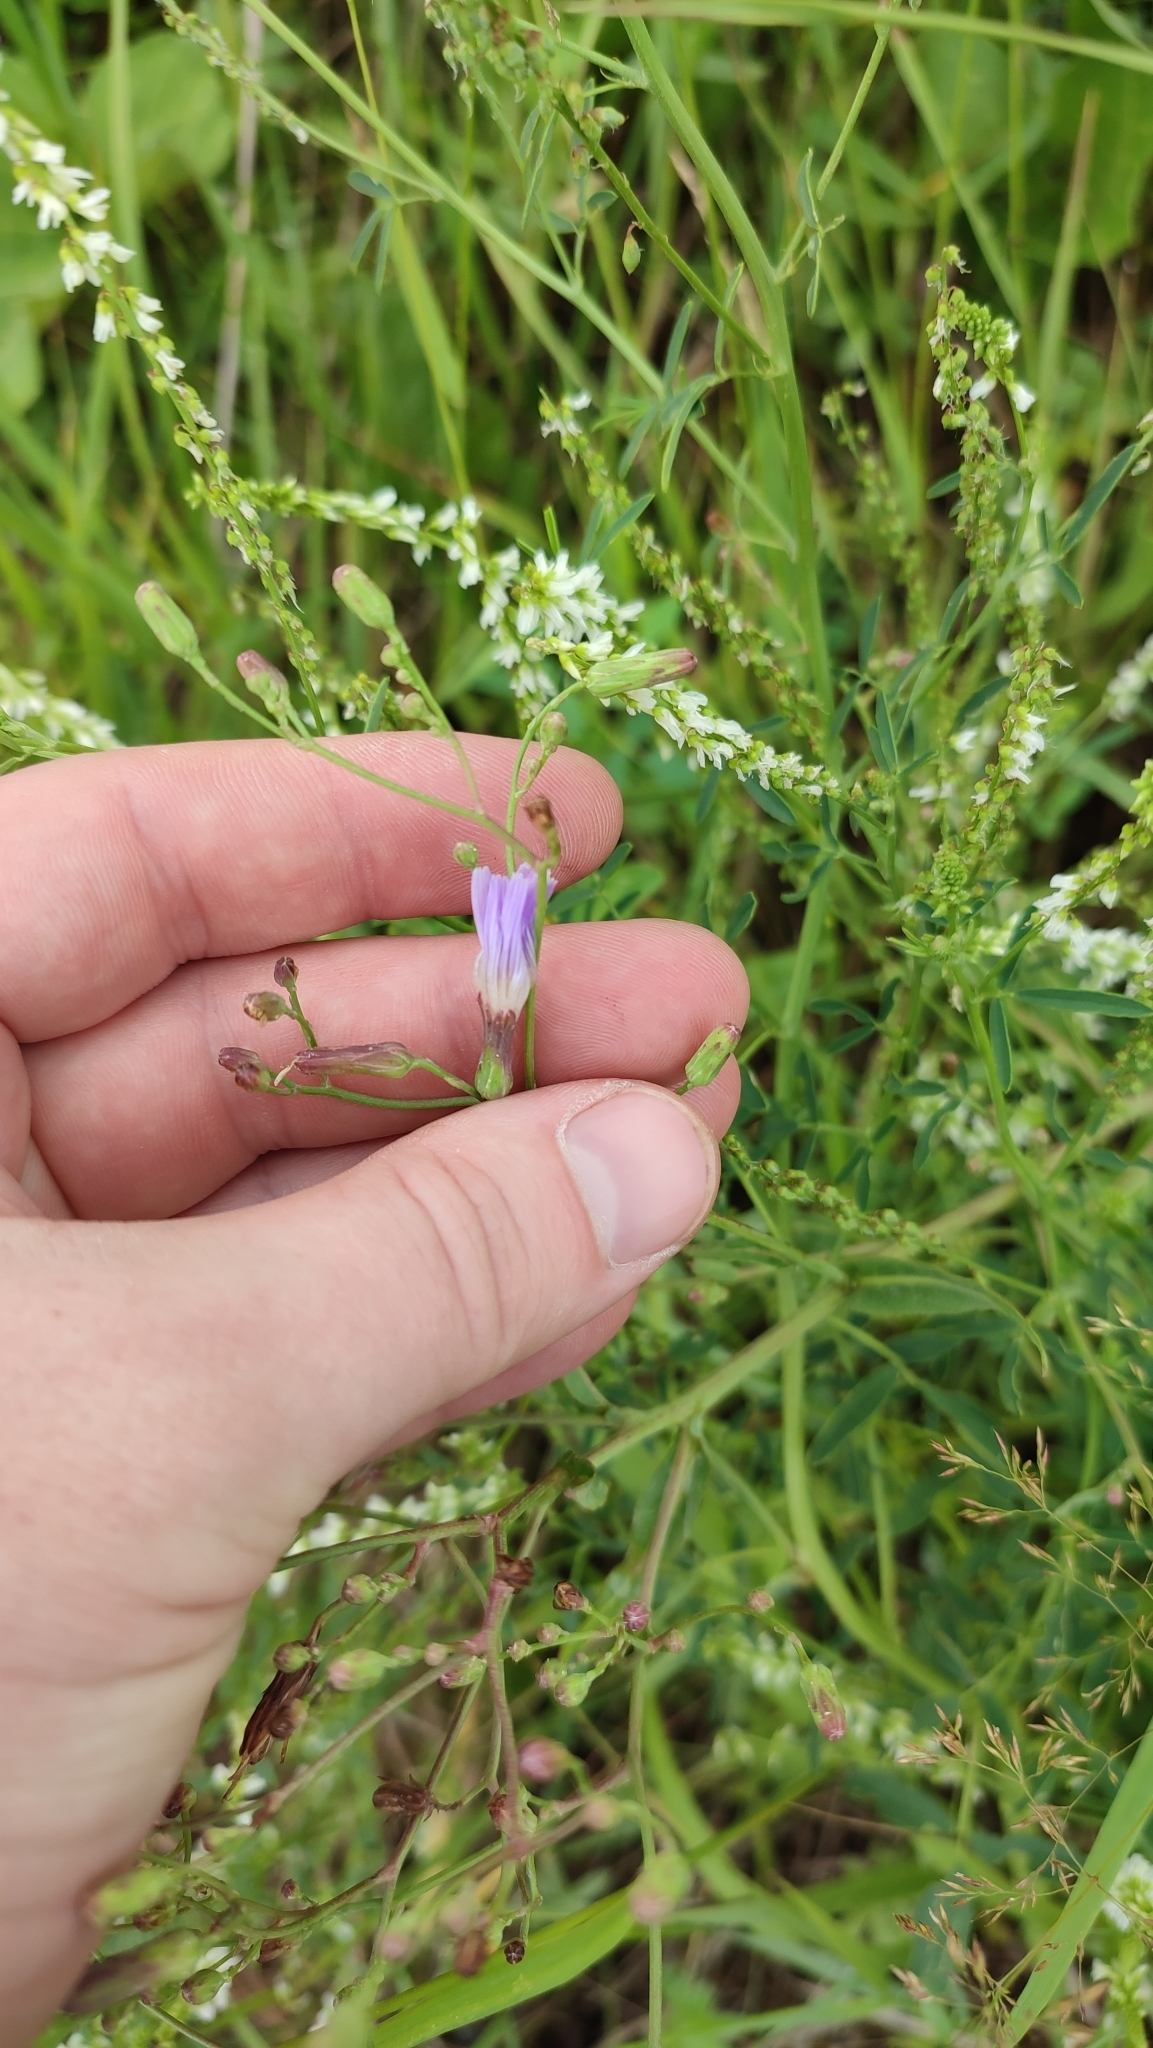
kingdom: Plantae
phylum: Tracheophyta
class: Magnoliopsida
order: Asterales
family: Asteraceae
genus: Lactuca
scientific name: Lactuca tatarica
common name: Blue lettuce
